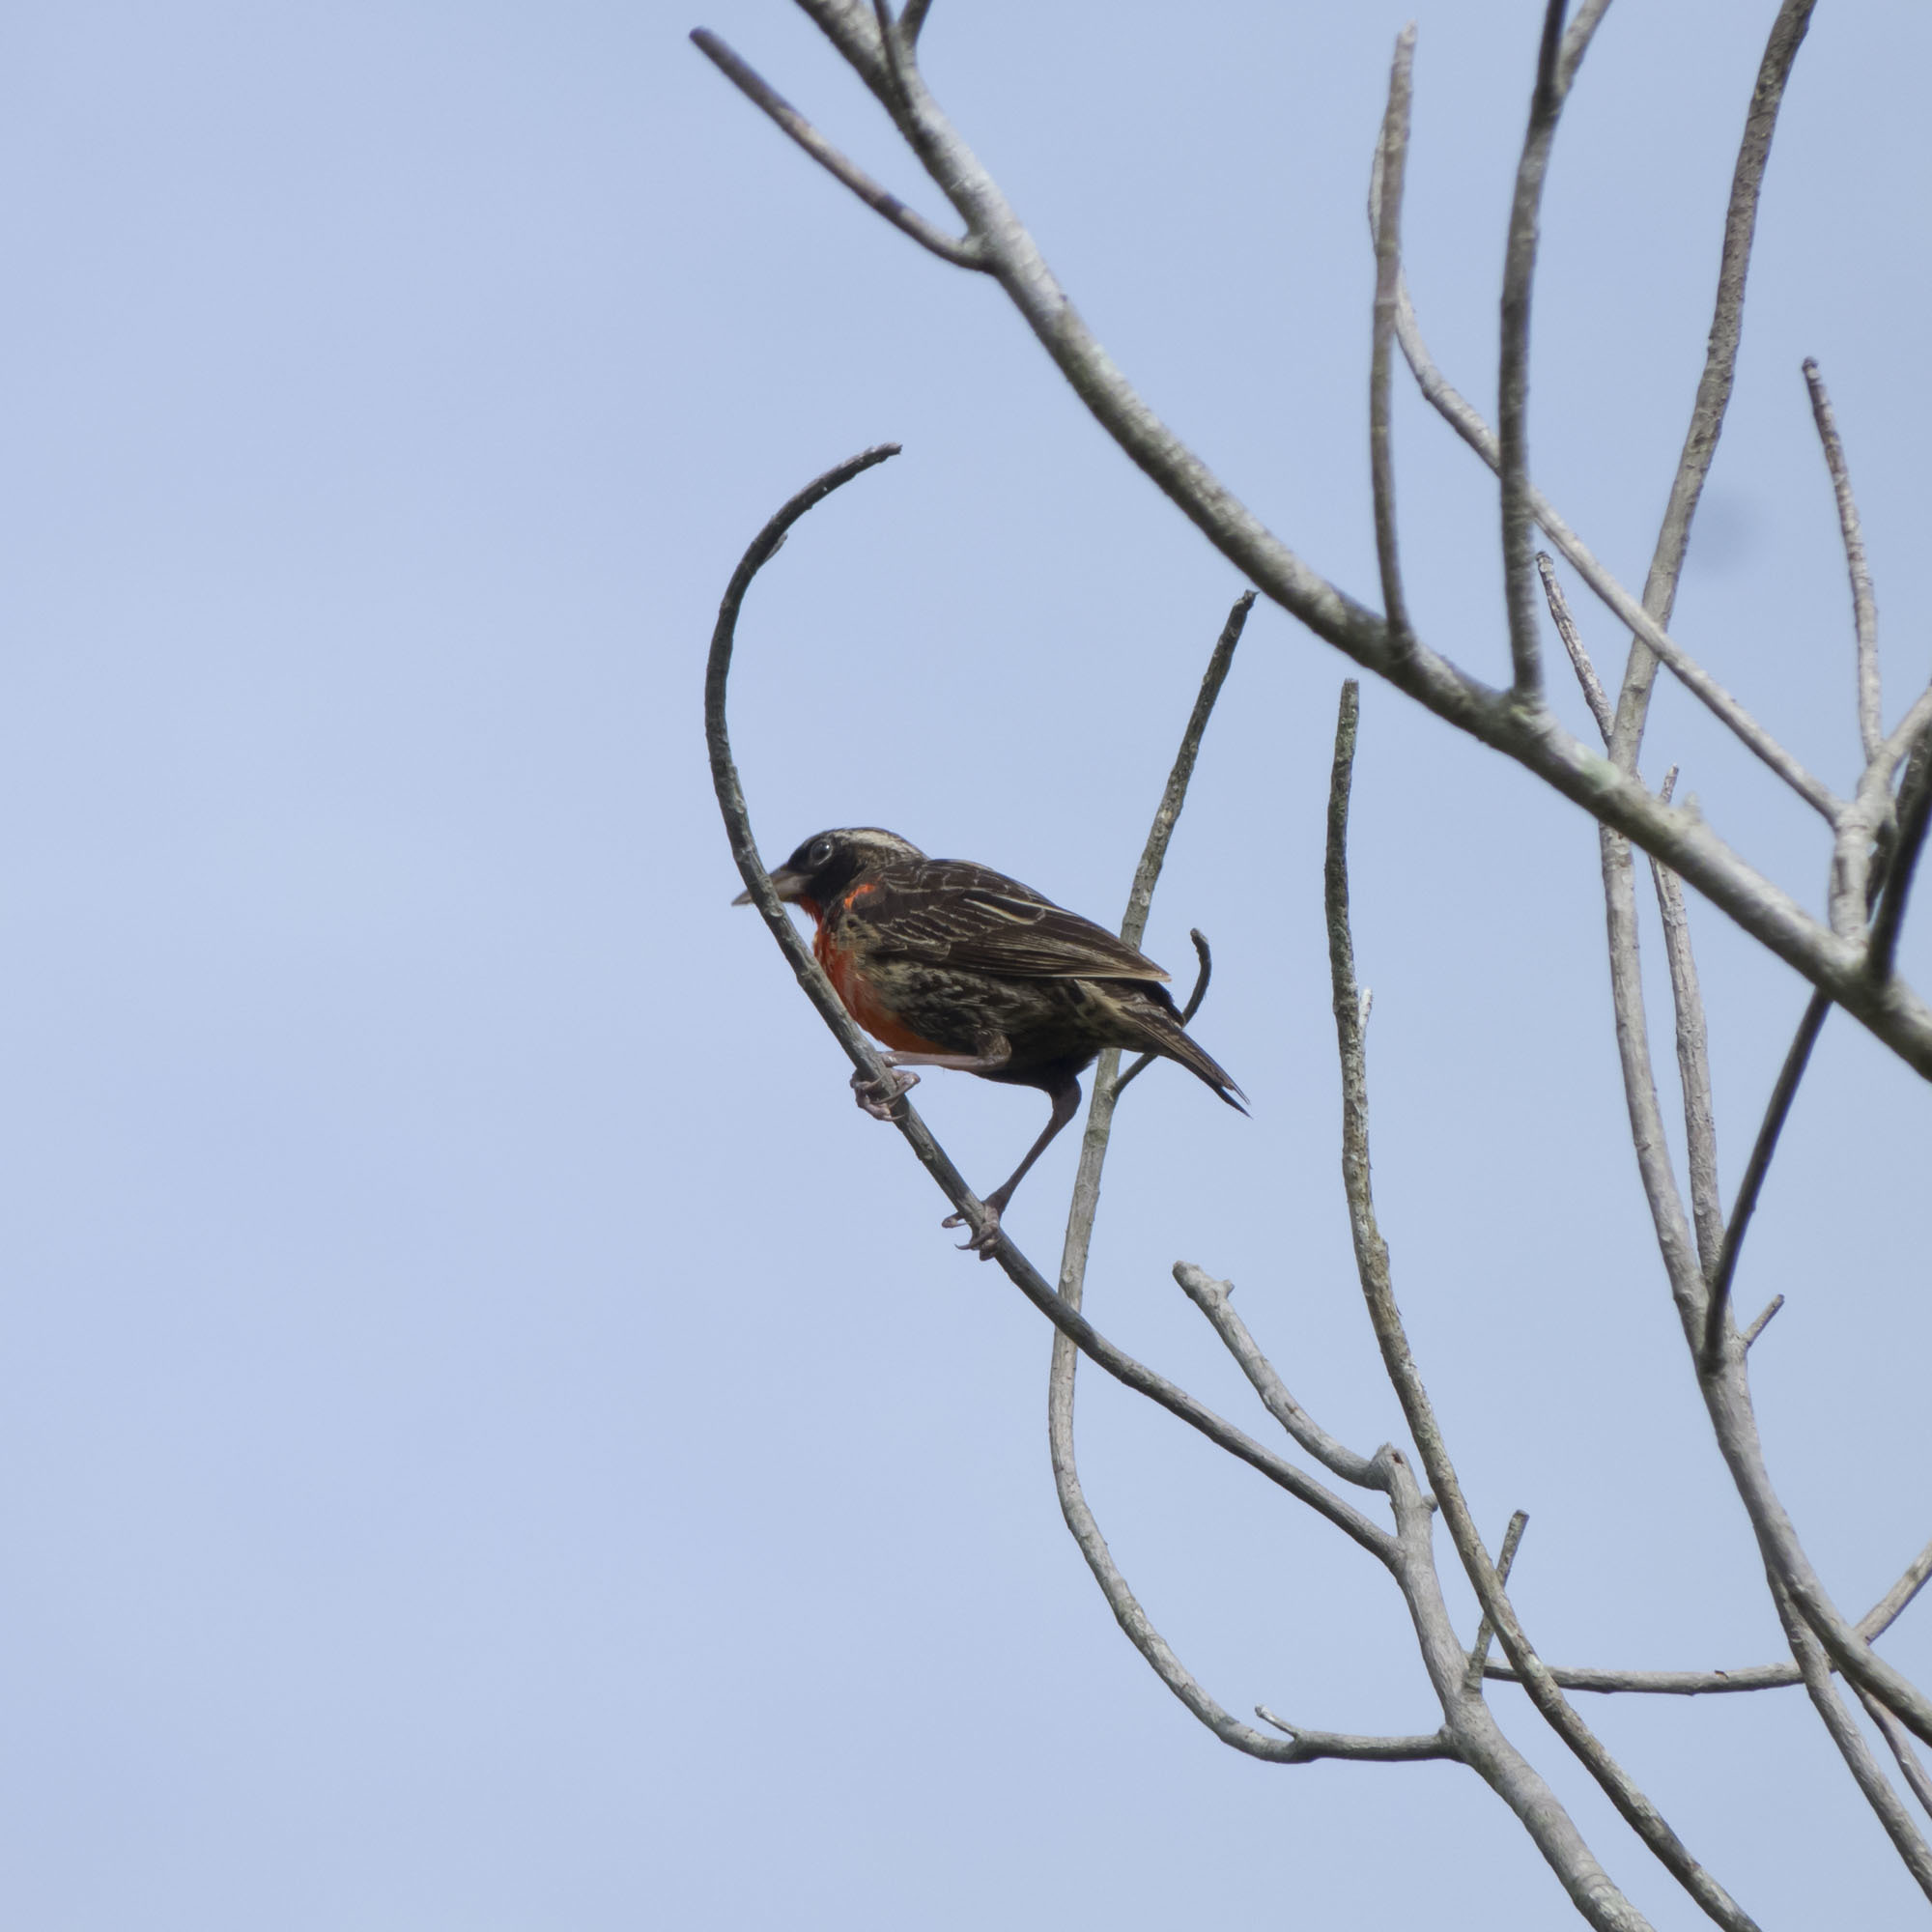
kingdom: Animalia
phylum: Chordata
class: Aves
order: Passeriformes
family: Icteridae
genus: Sturnella
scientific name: Sturnella militaris
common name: Red-breasted blackbird
